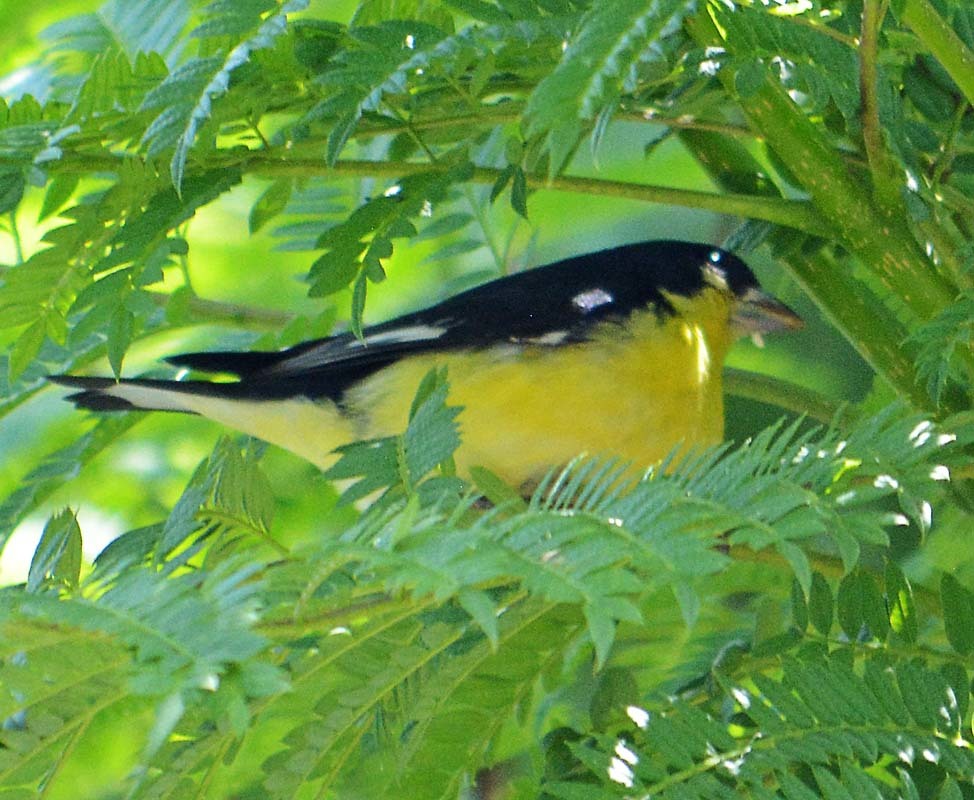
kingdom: Animalia
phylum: Chordata
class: Aves
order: Passeriformes
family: Fringillidae
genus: Spinus
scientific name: Spinus psaltria
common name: Lesser goldfinch
